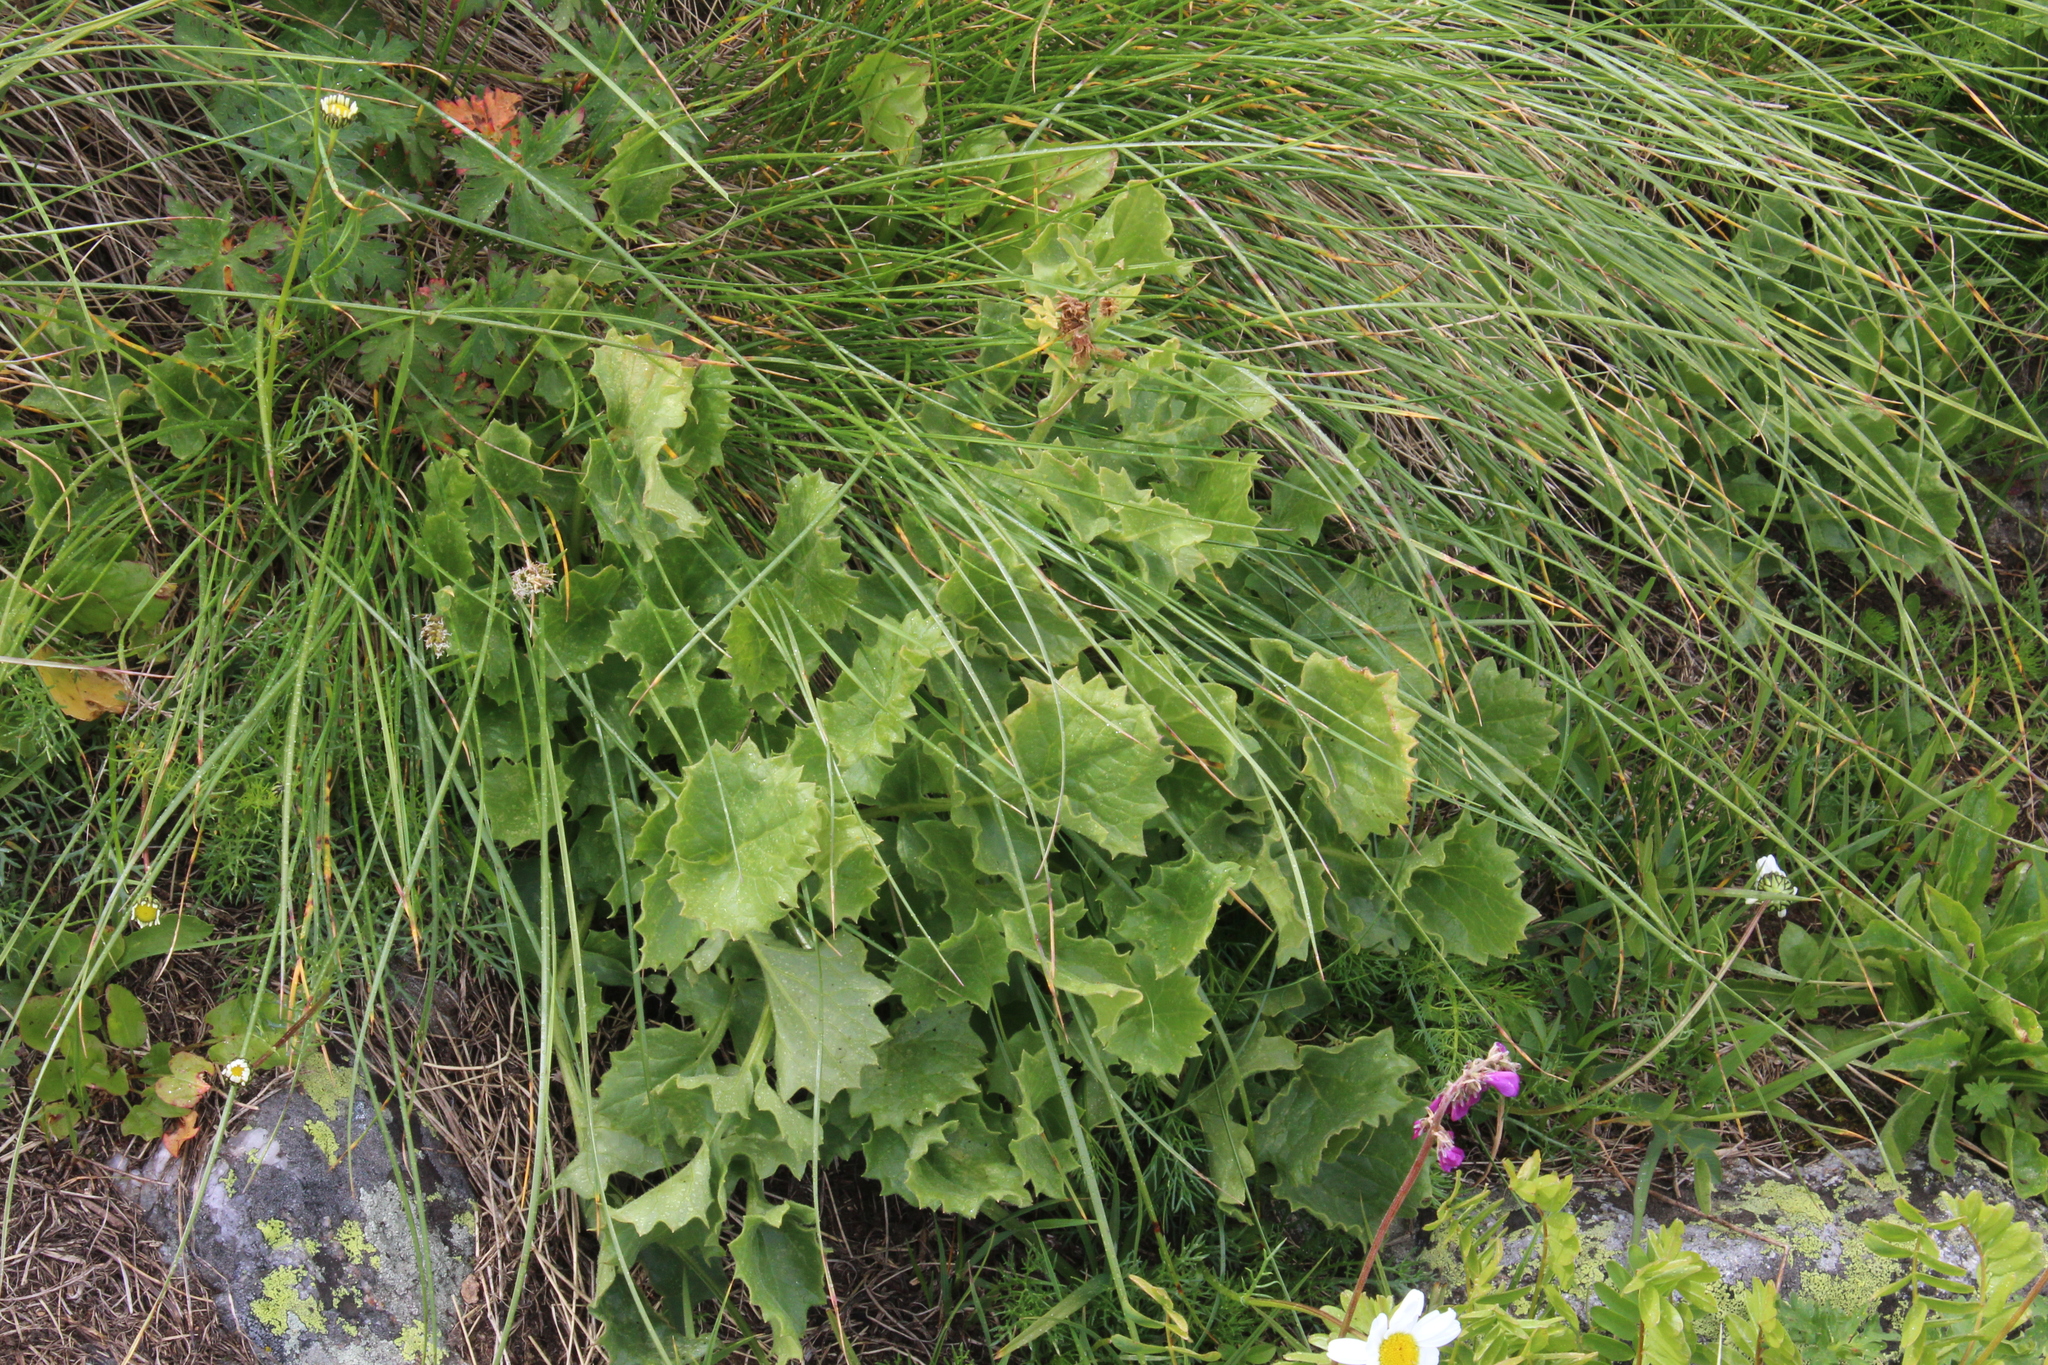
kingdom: Plantae
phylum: Tracheophyta
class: Magnoliopsida
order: Asterales
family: Asteraceae
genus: Turanecio
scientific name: Turanecio taraxacifolius
